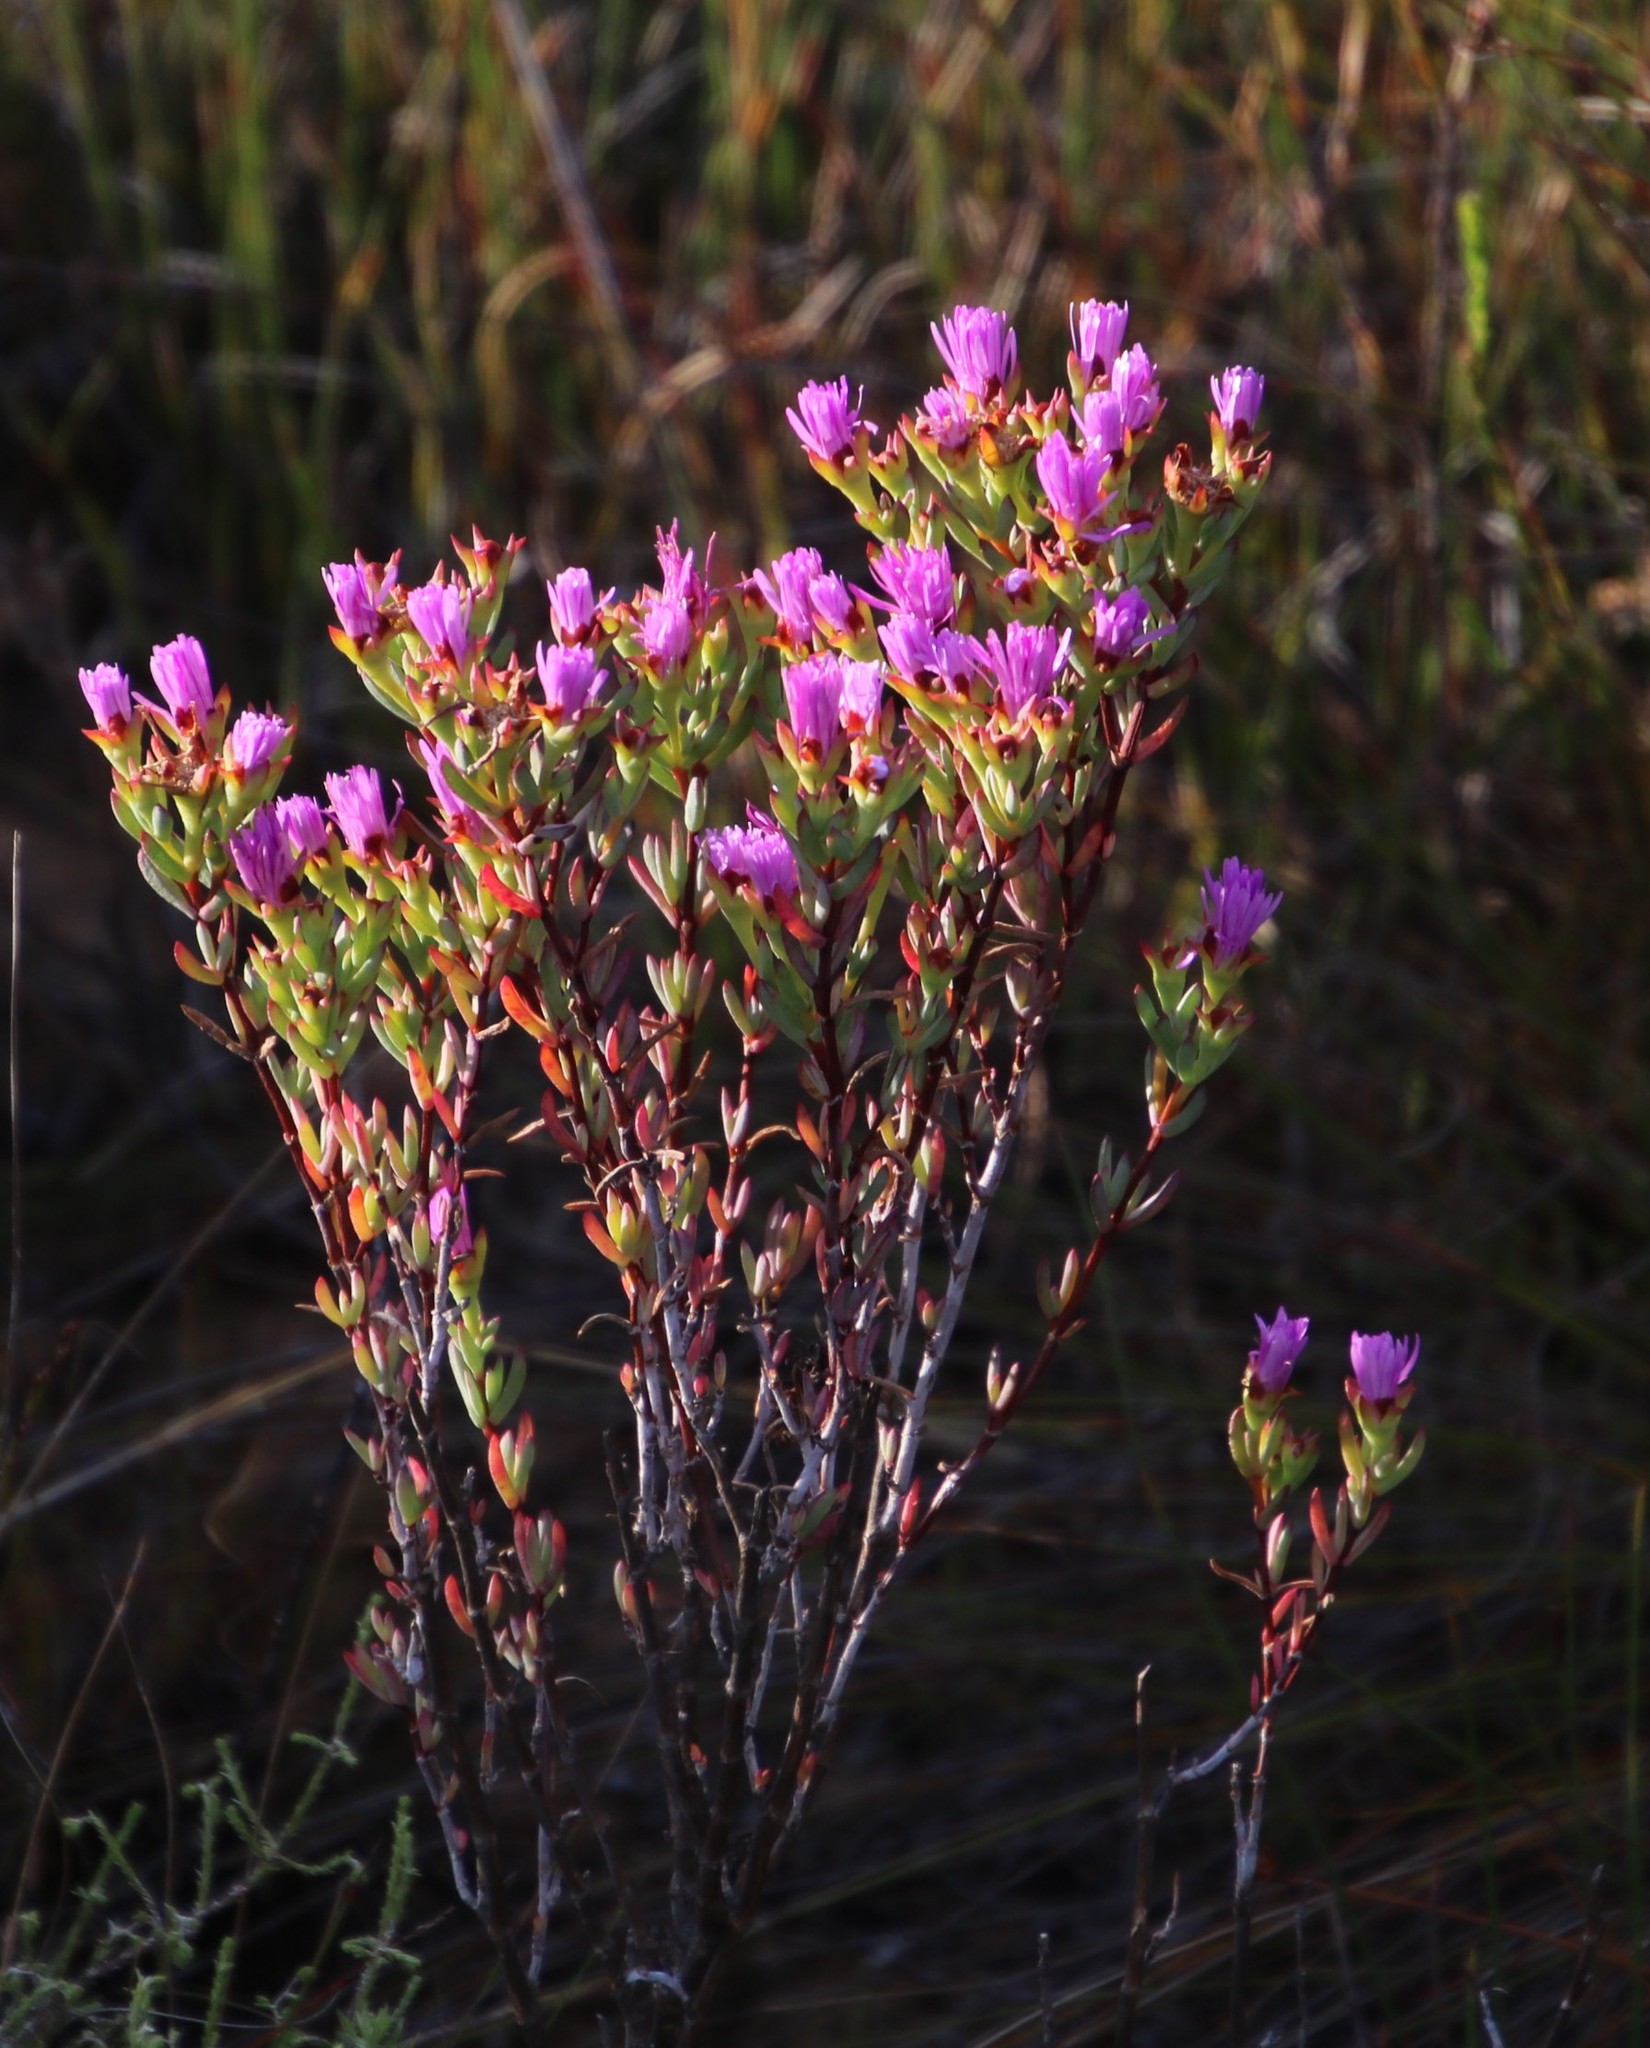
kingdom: Plantae
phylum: Tracheophyta
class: Magnoliopsida
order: Caryophyllales
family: Aizoaceae
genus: Lampranthus
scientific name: Lampranthus glomeratus
